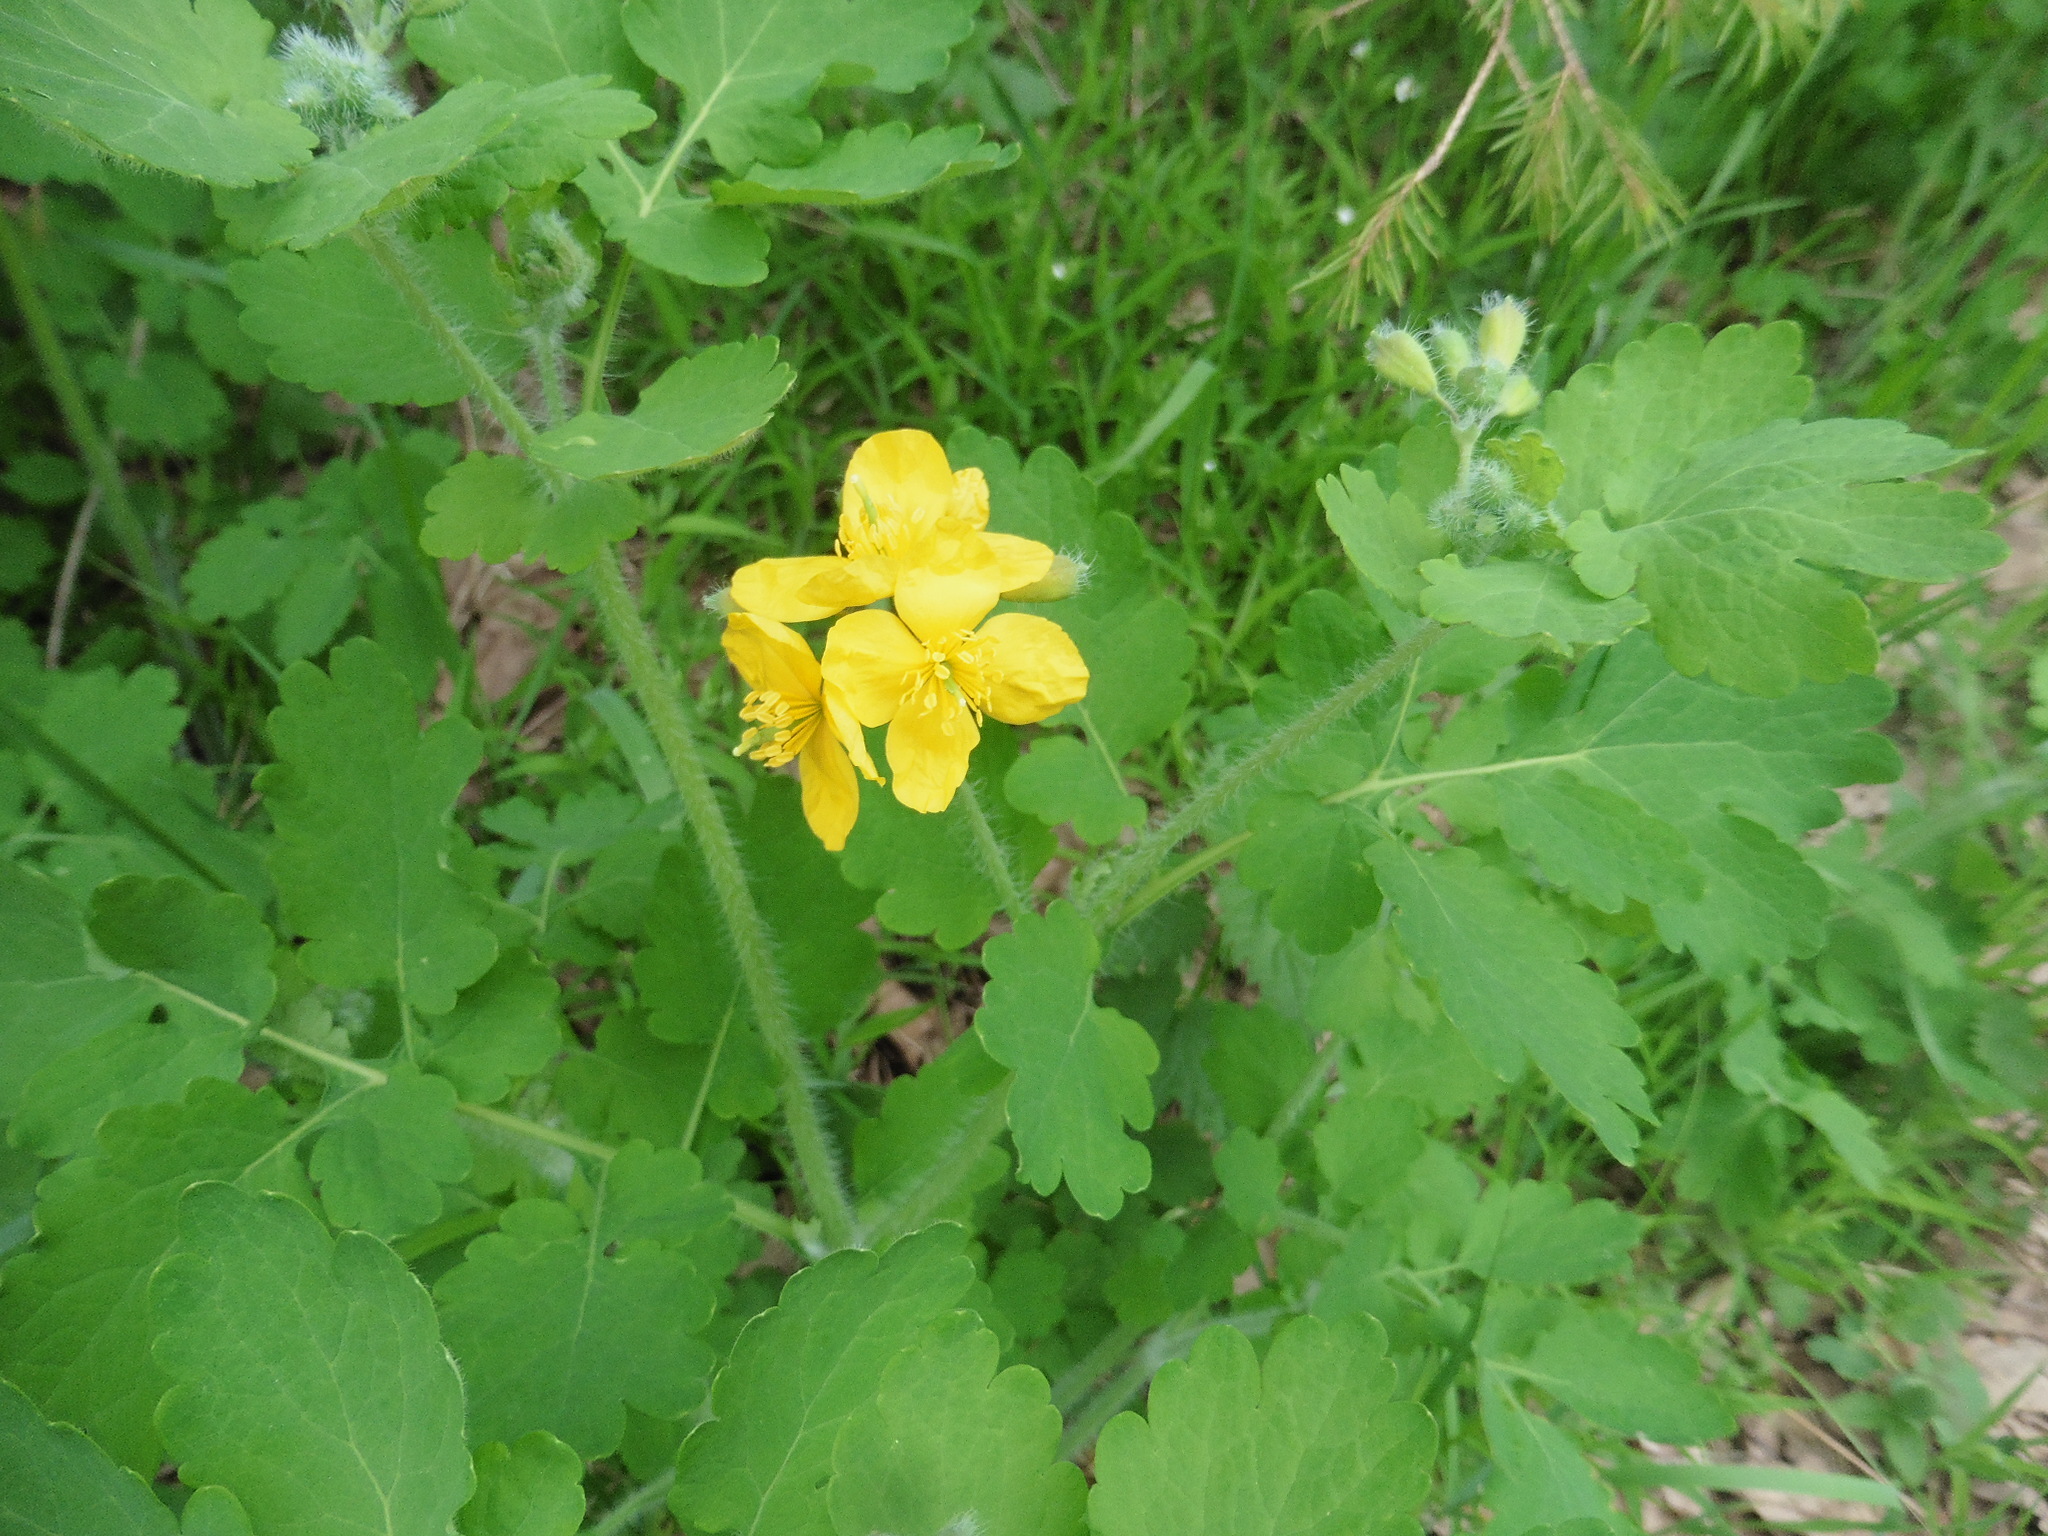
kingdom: Plantae
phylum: Tracheophyta
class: Magnoliopsida
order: Ranunculales
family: Papaveraceae
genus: Chelidonium
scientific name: Chelidonium majus
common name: Greater celandine
